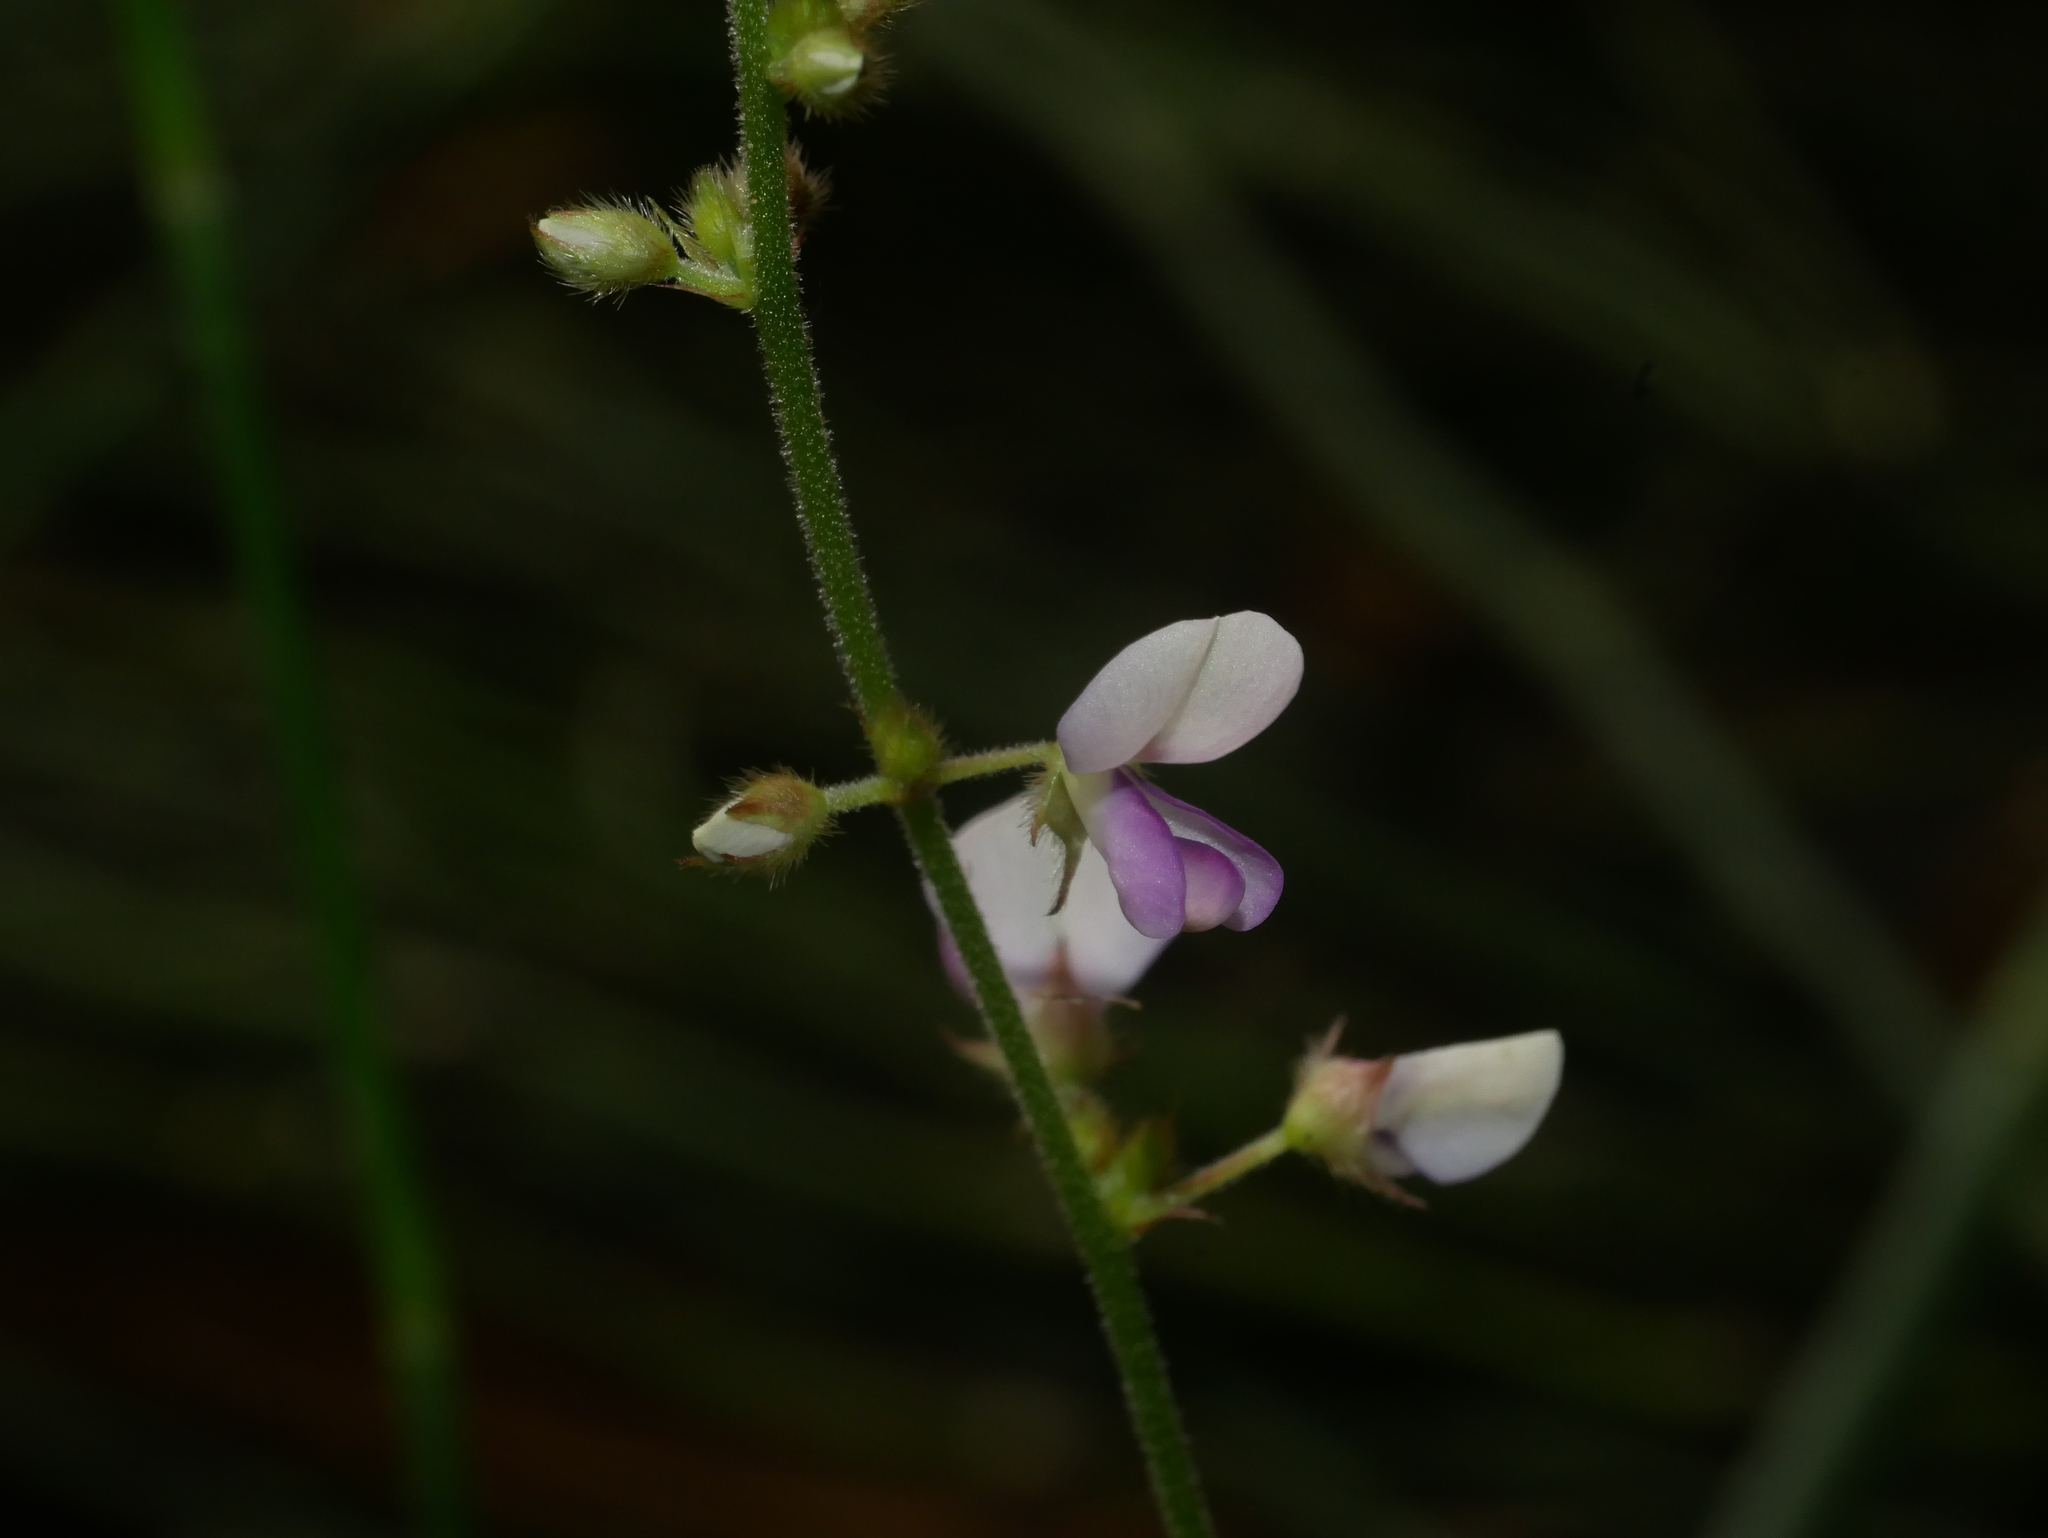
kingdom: Plantae
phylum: Tracheophyta
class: Magnoliopsida
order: Fabales
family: Fabaceae
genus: Sohmaea
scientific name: Sohmaea diffusa
